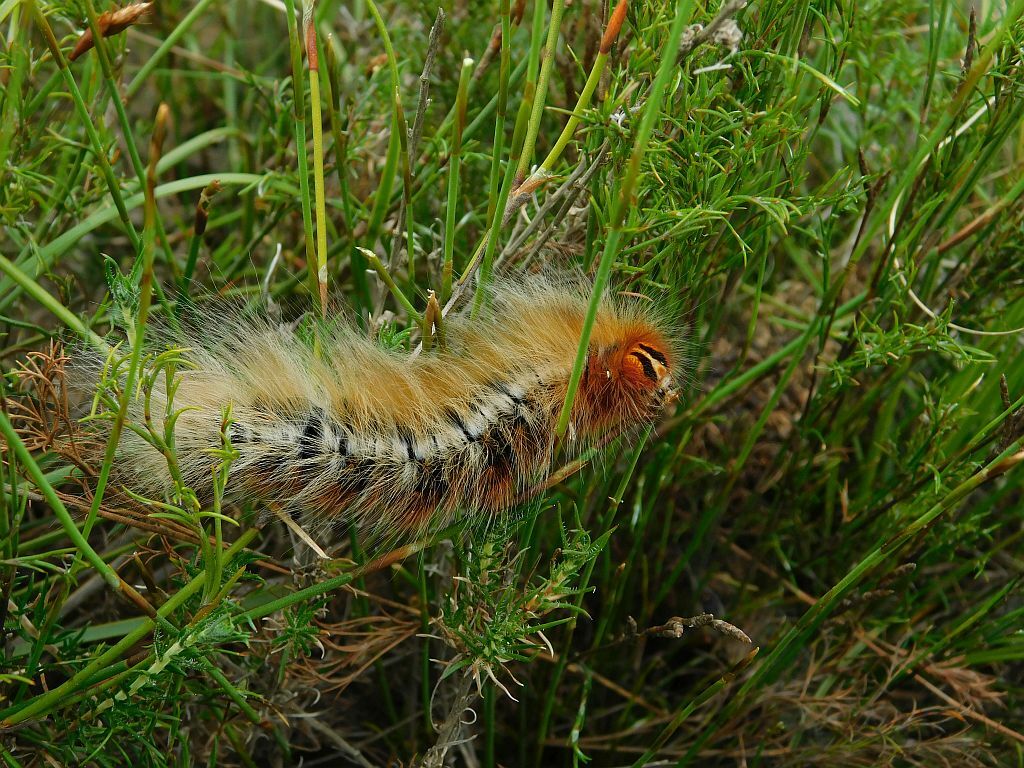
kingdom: Animalia
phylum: Arthropoda
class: Insecta
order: Lepidoptera
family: Lasiocampidae
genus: Mesocelis
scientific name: Mesocelis monticola
